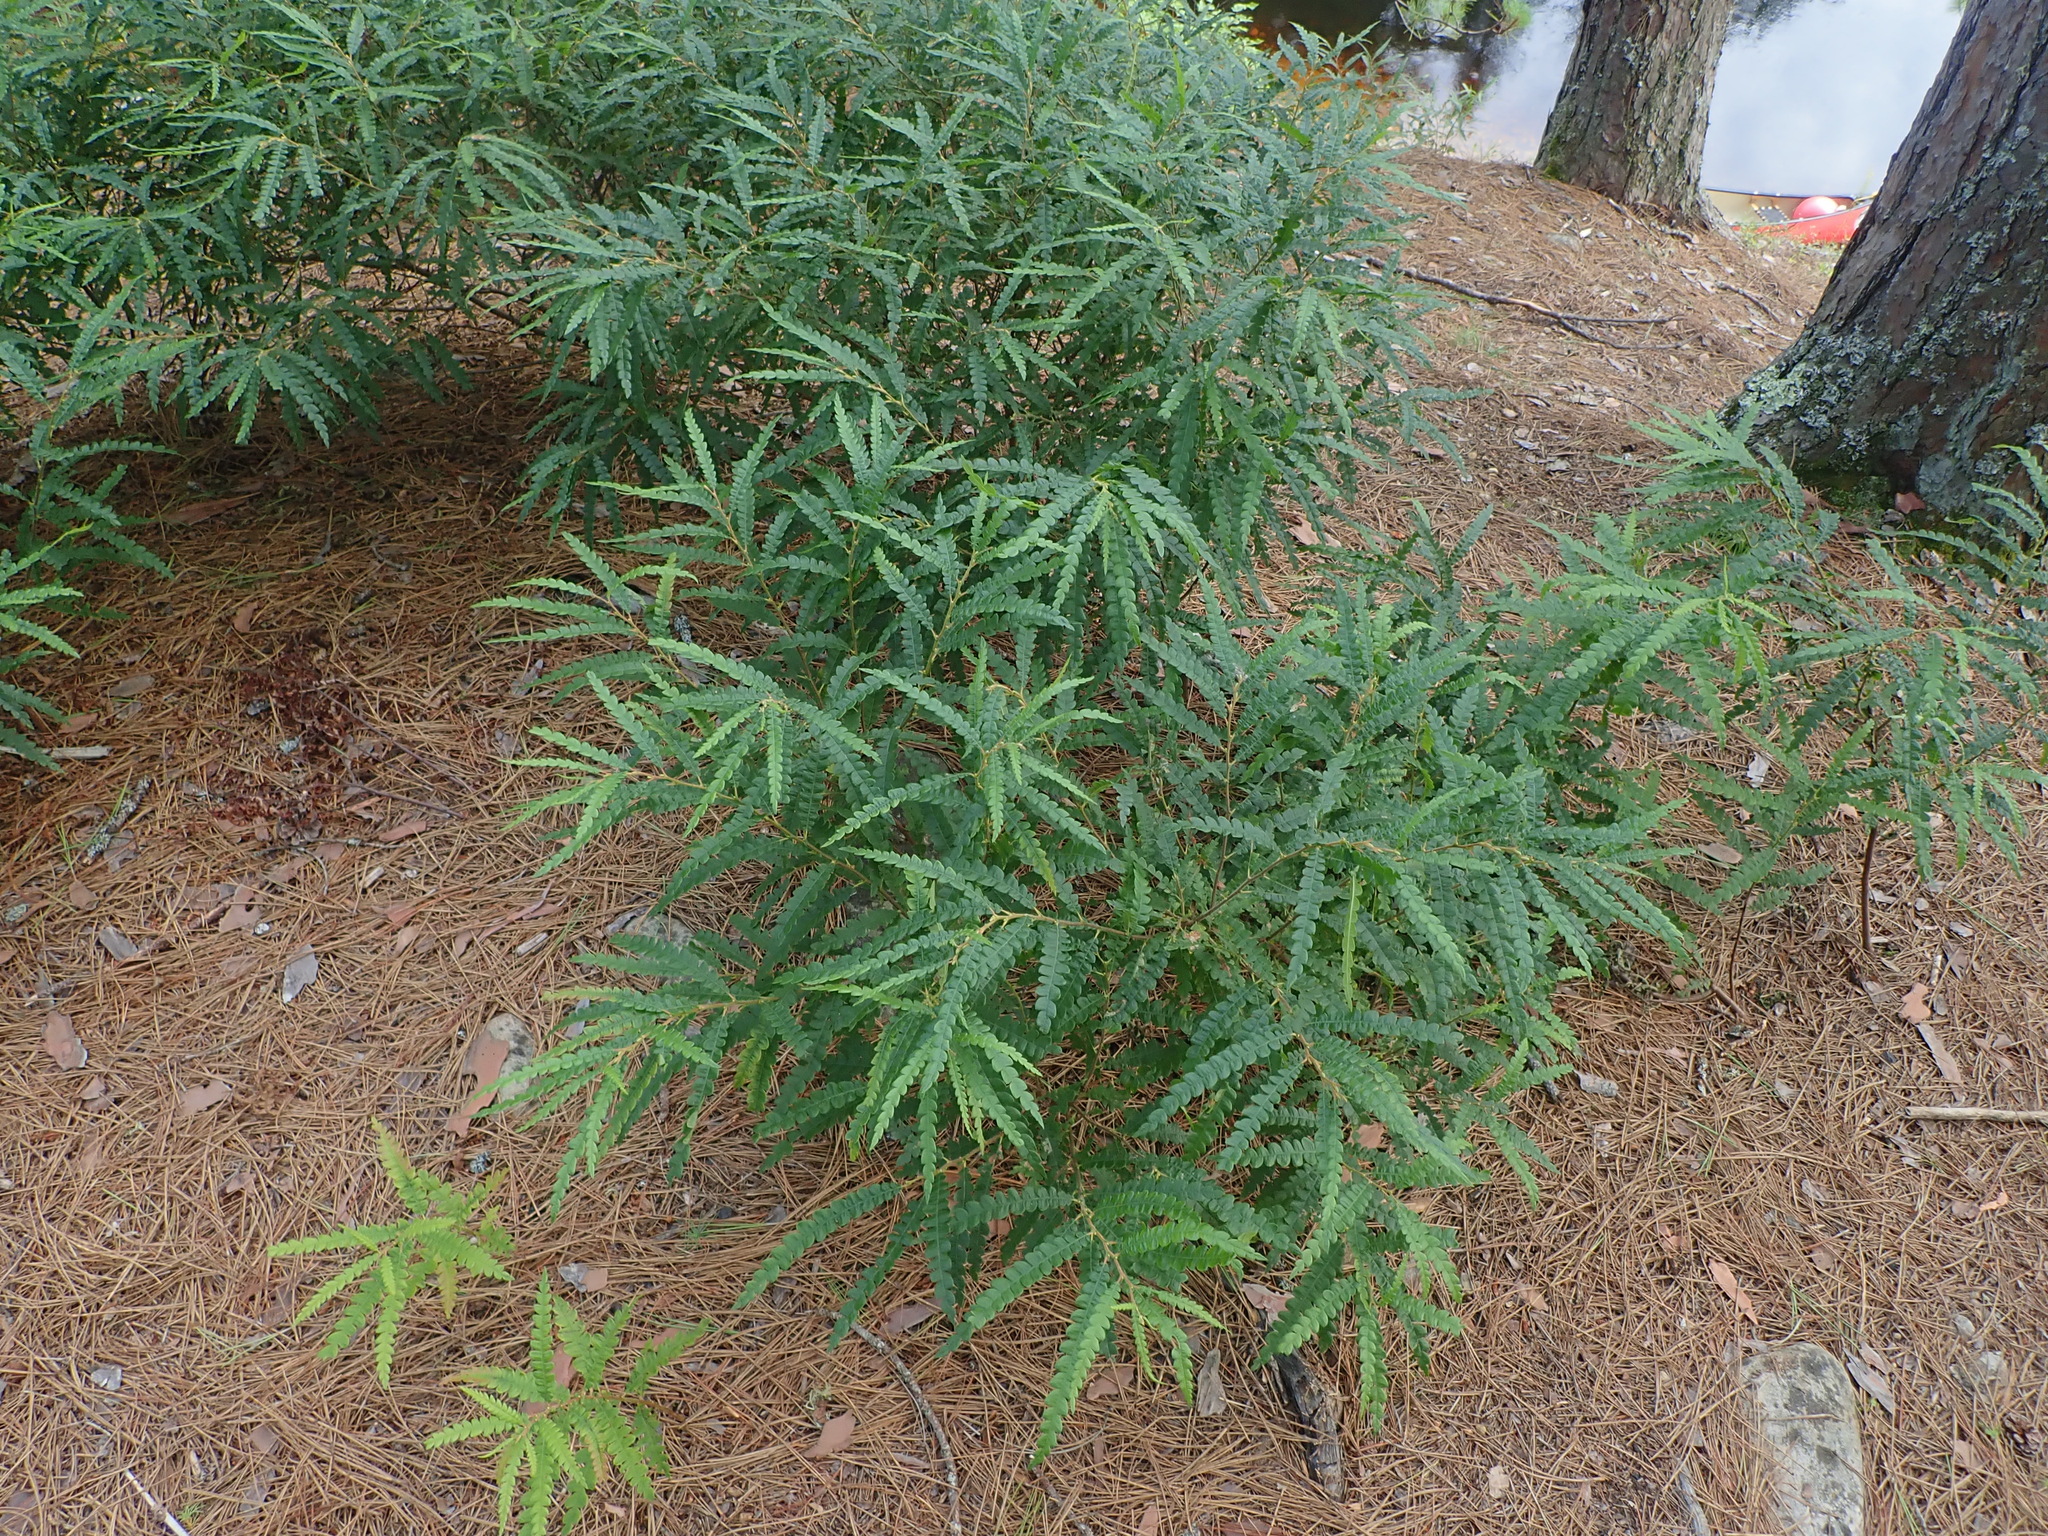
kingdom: Plantae
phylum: Tracheophyta
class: Magnoliopsida
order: Fagales
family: Myricaceae
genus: Comptonia
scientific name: Comptonia peregrina
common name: Sweet-fern
